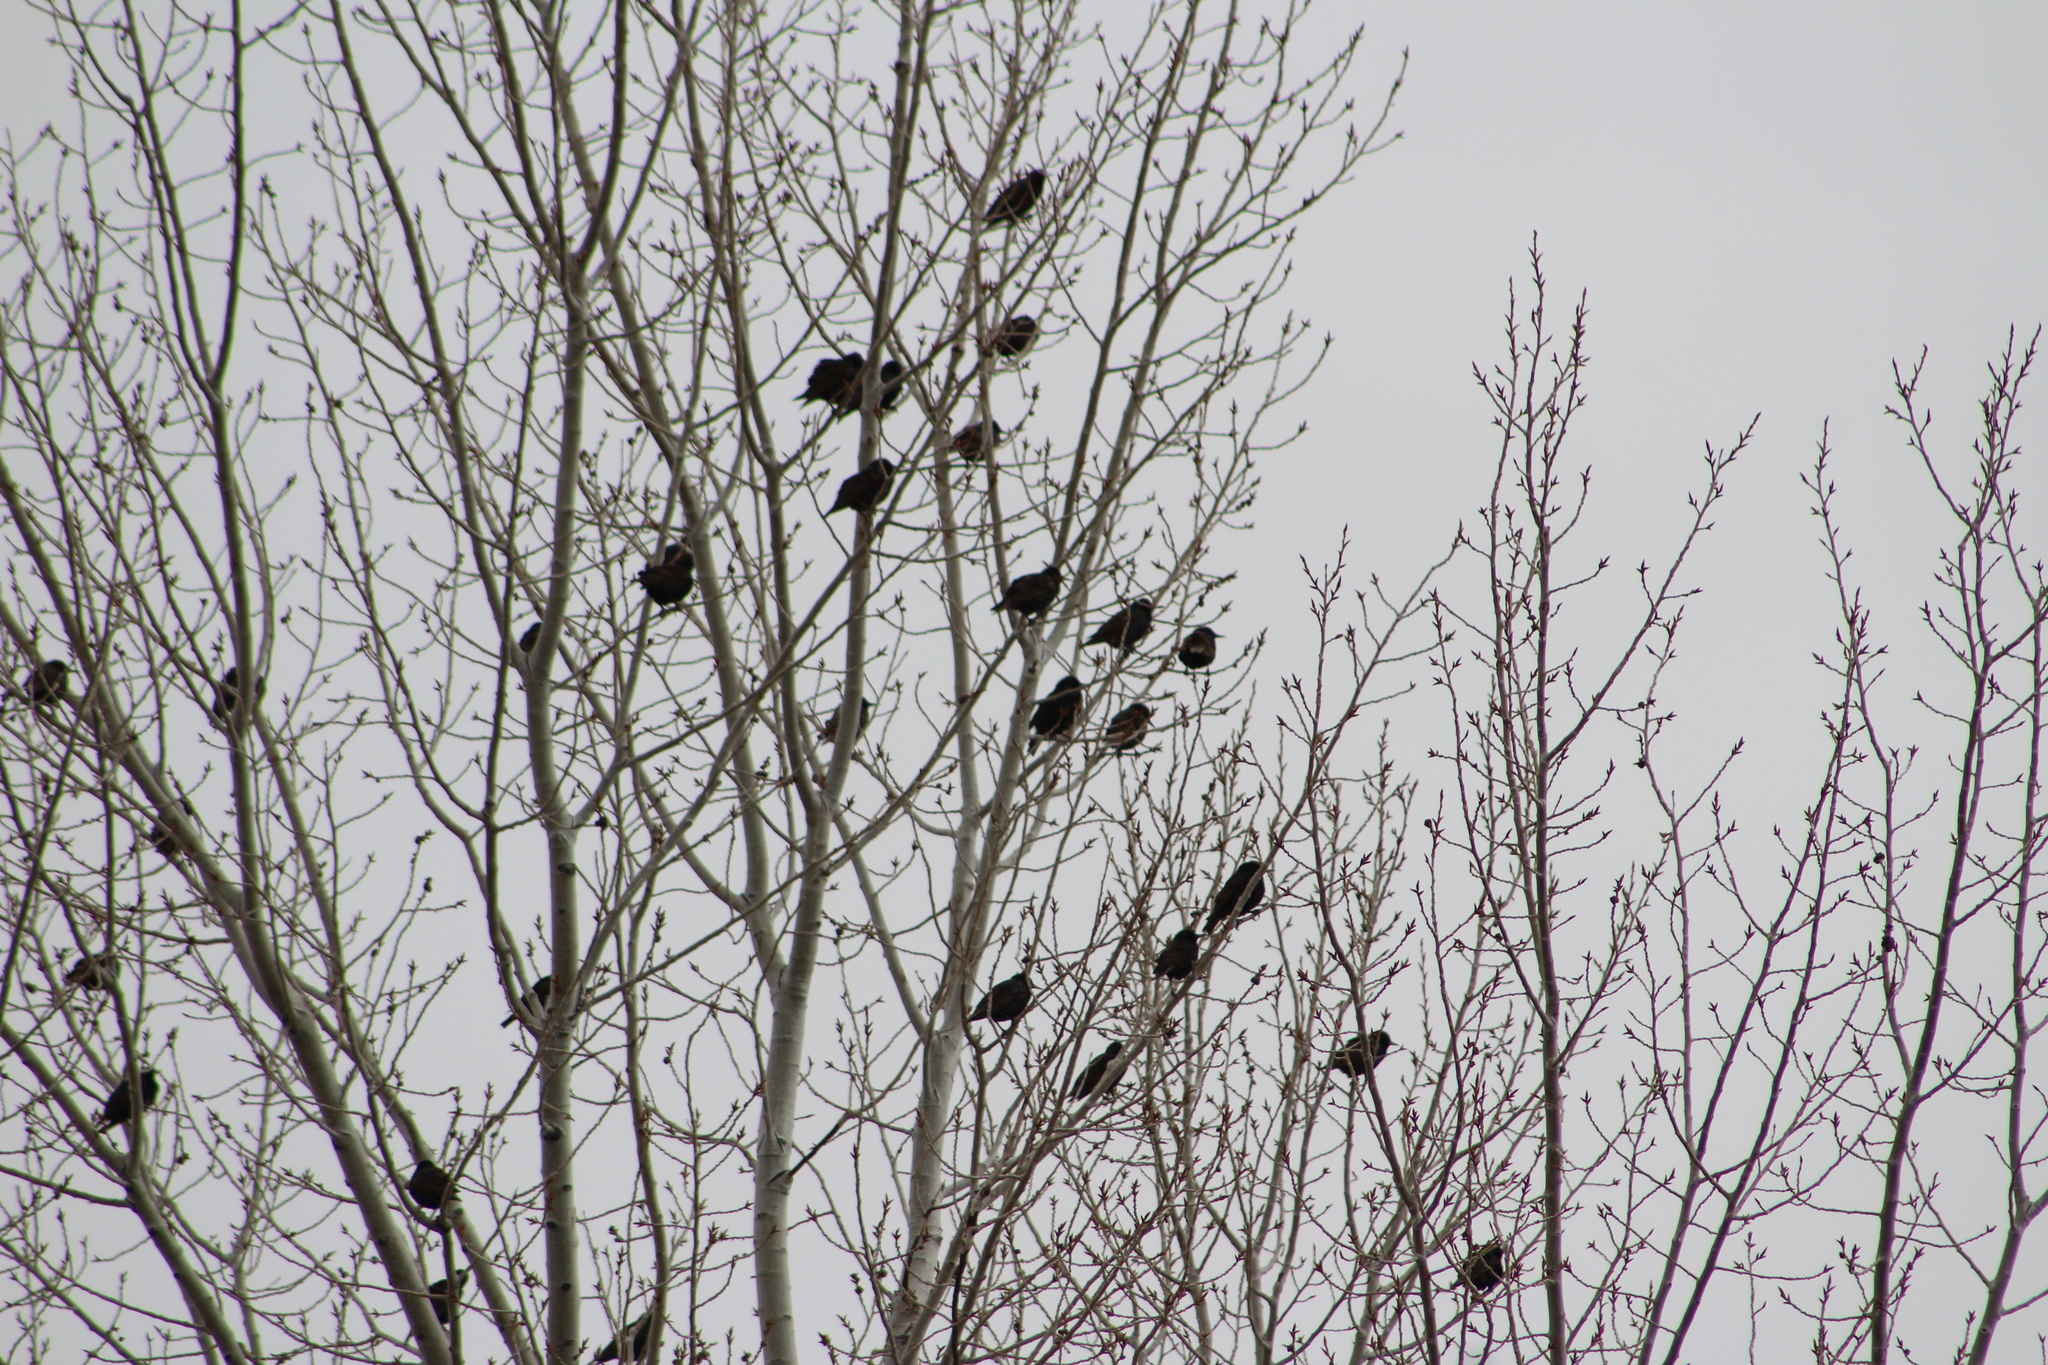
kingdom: Animalia
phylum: Chordata
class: Aves
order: Passeriformes
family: Sturnidae
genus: Sturnus
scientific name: Sturnus vulgaris
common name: Common starling
